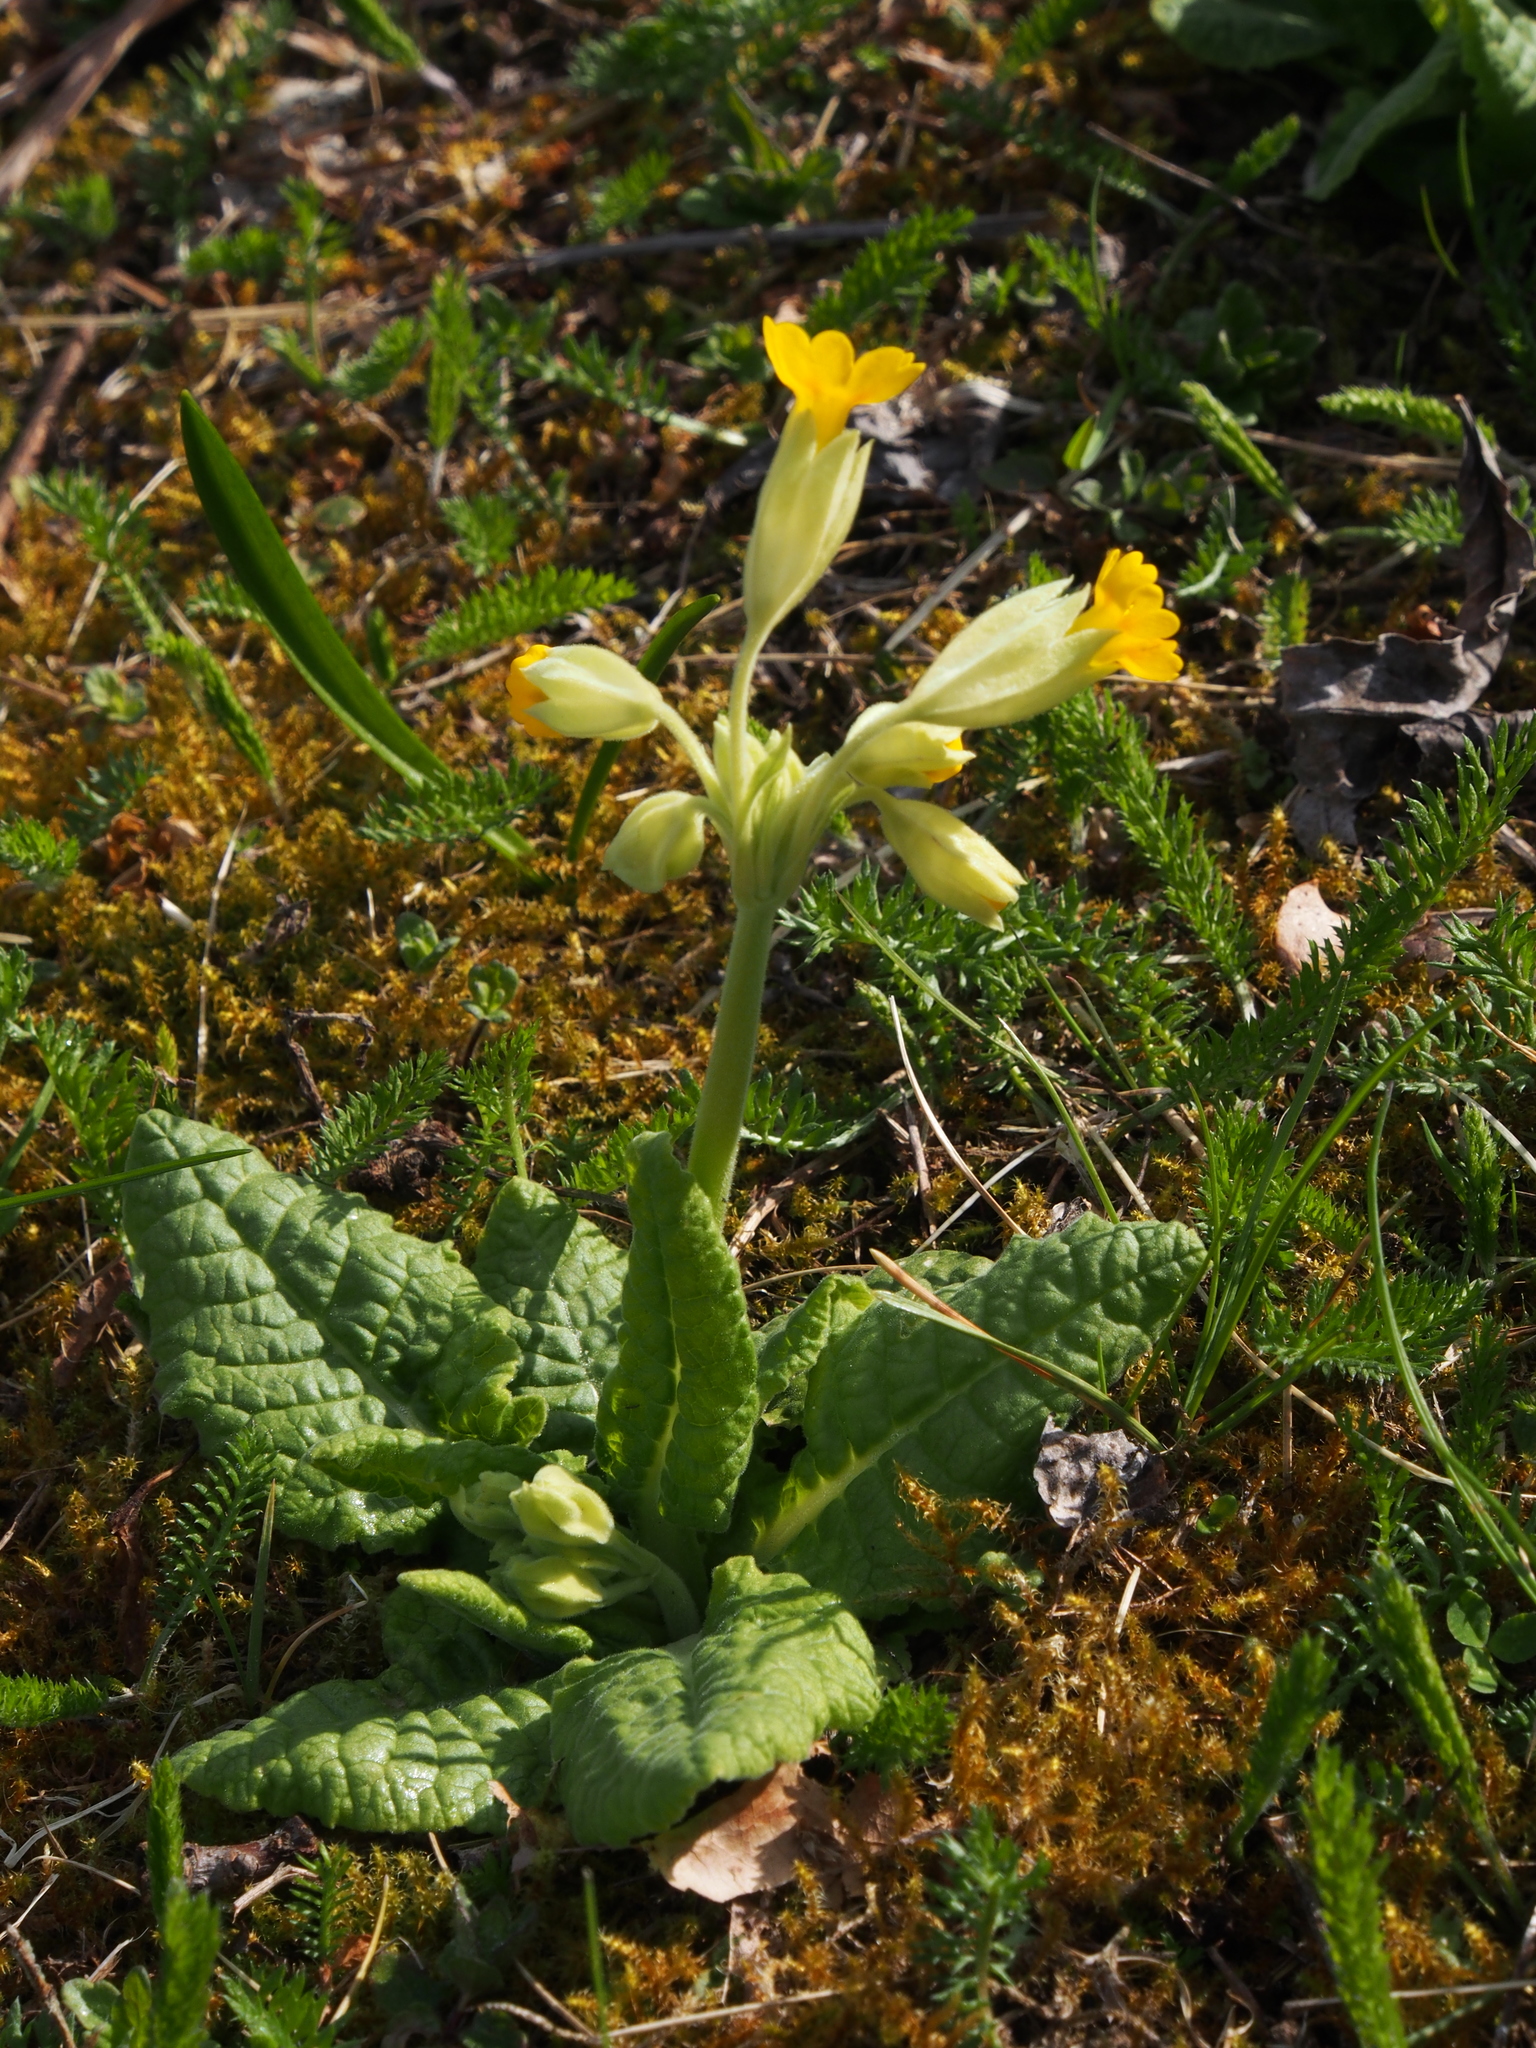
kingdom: Plantae
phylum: Tracheophyta
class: Magnoliopsida
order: Ericales
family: Primulaceae
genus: Primula
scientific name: Primula veris
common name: Cowslip
